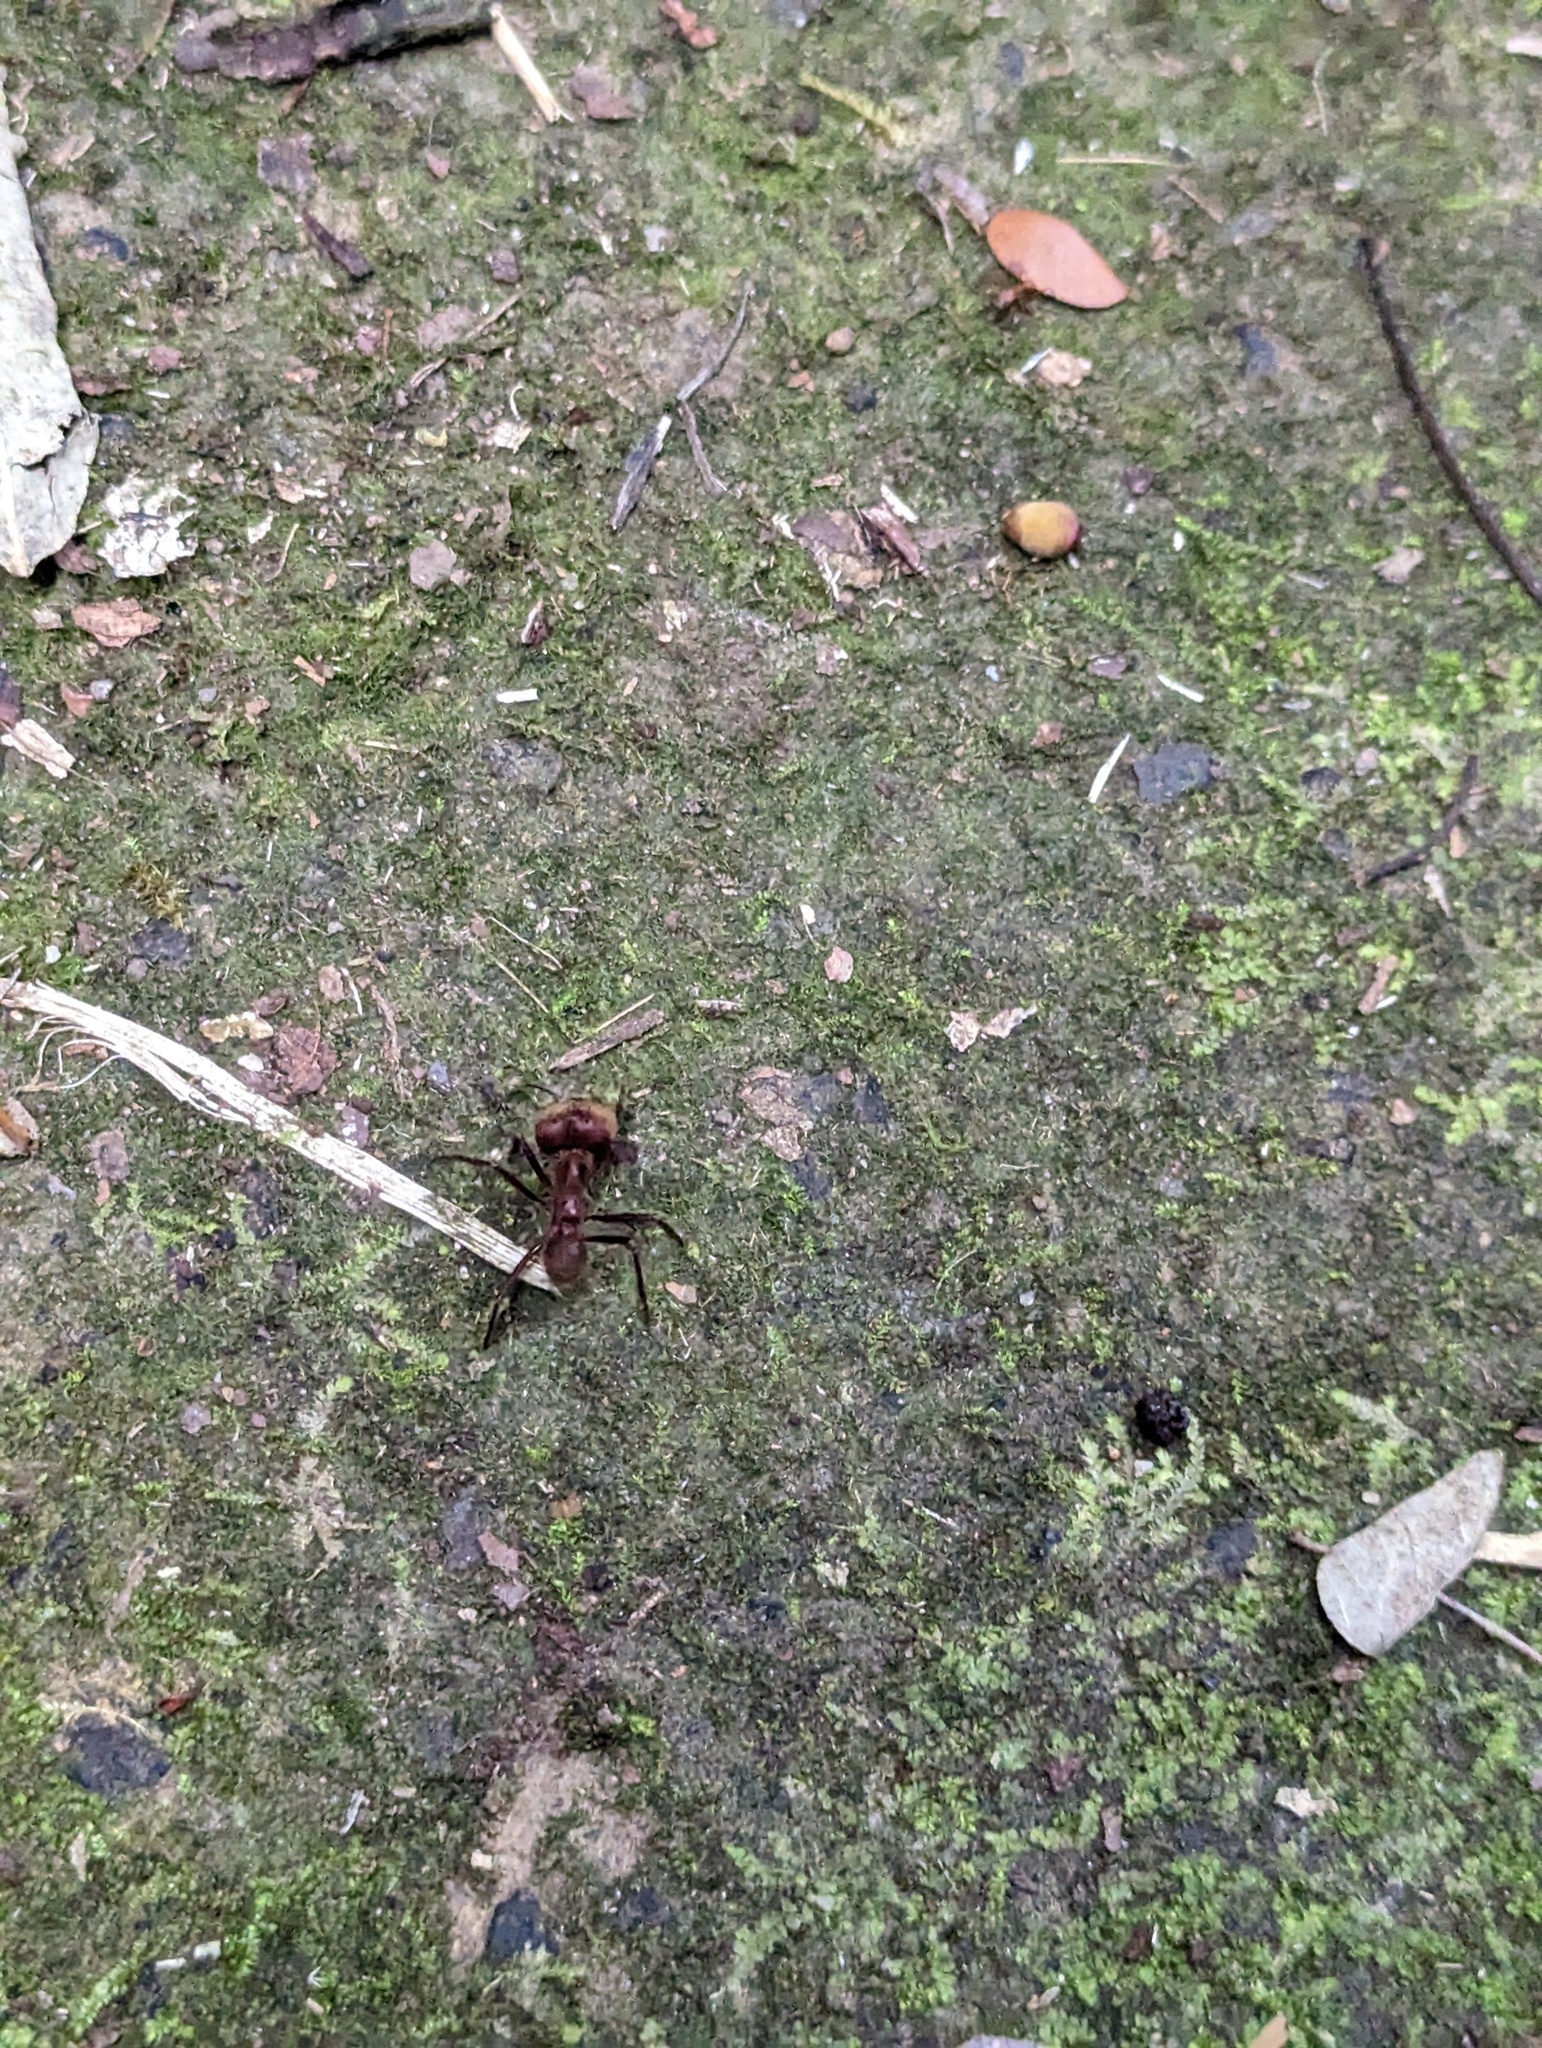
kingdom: Animalia
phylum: Arthropoda
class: Insecta
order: Hymenoptera
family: Formicidae
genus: Atta
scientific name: Atta cephalotes
